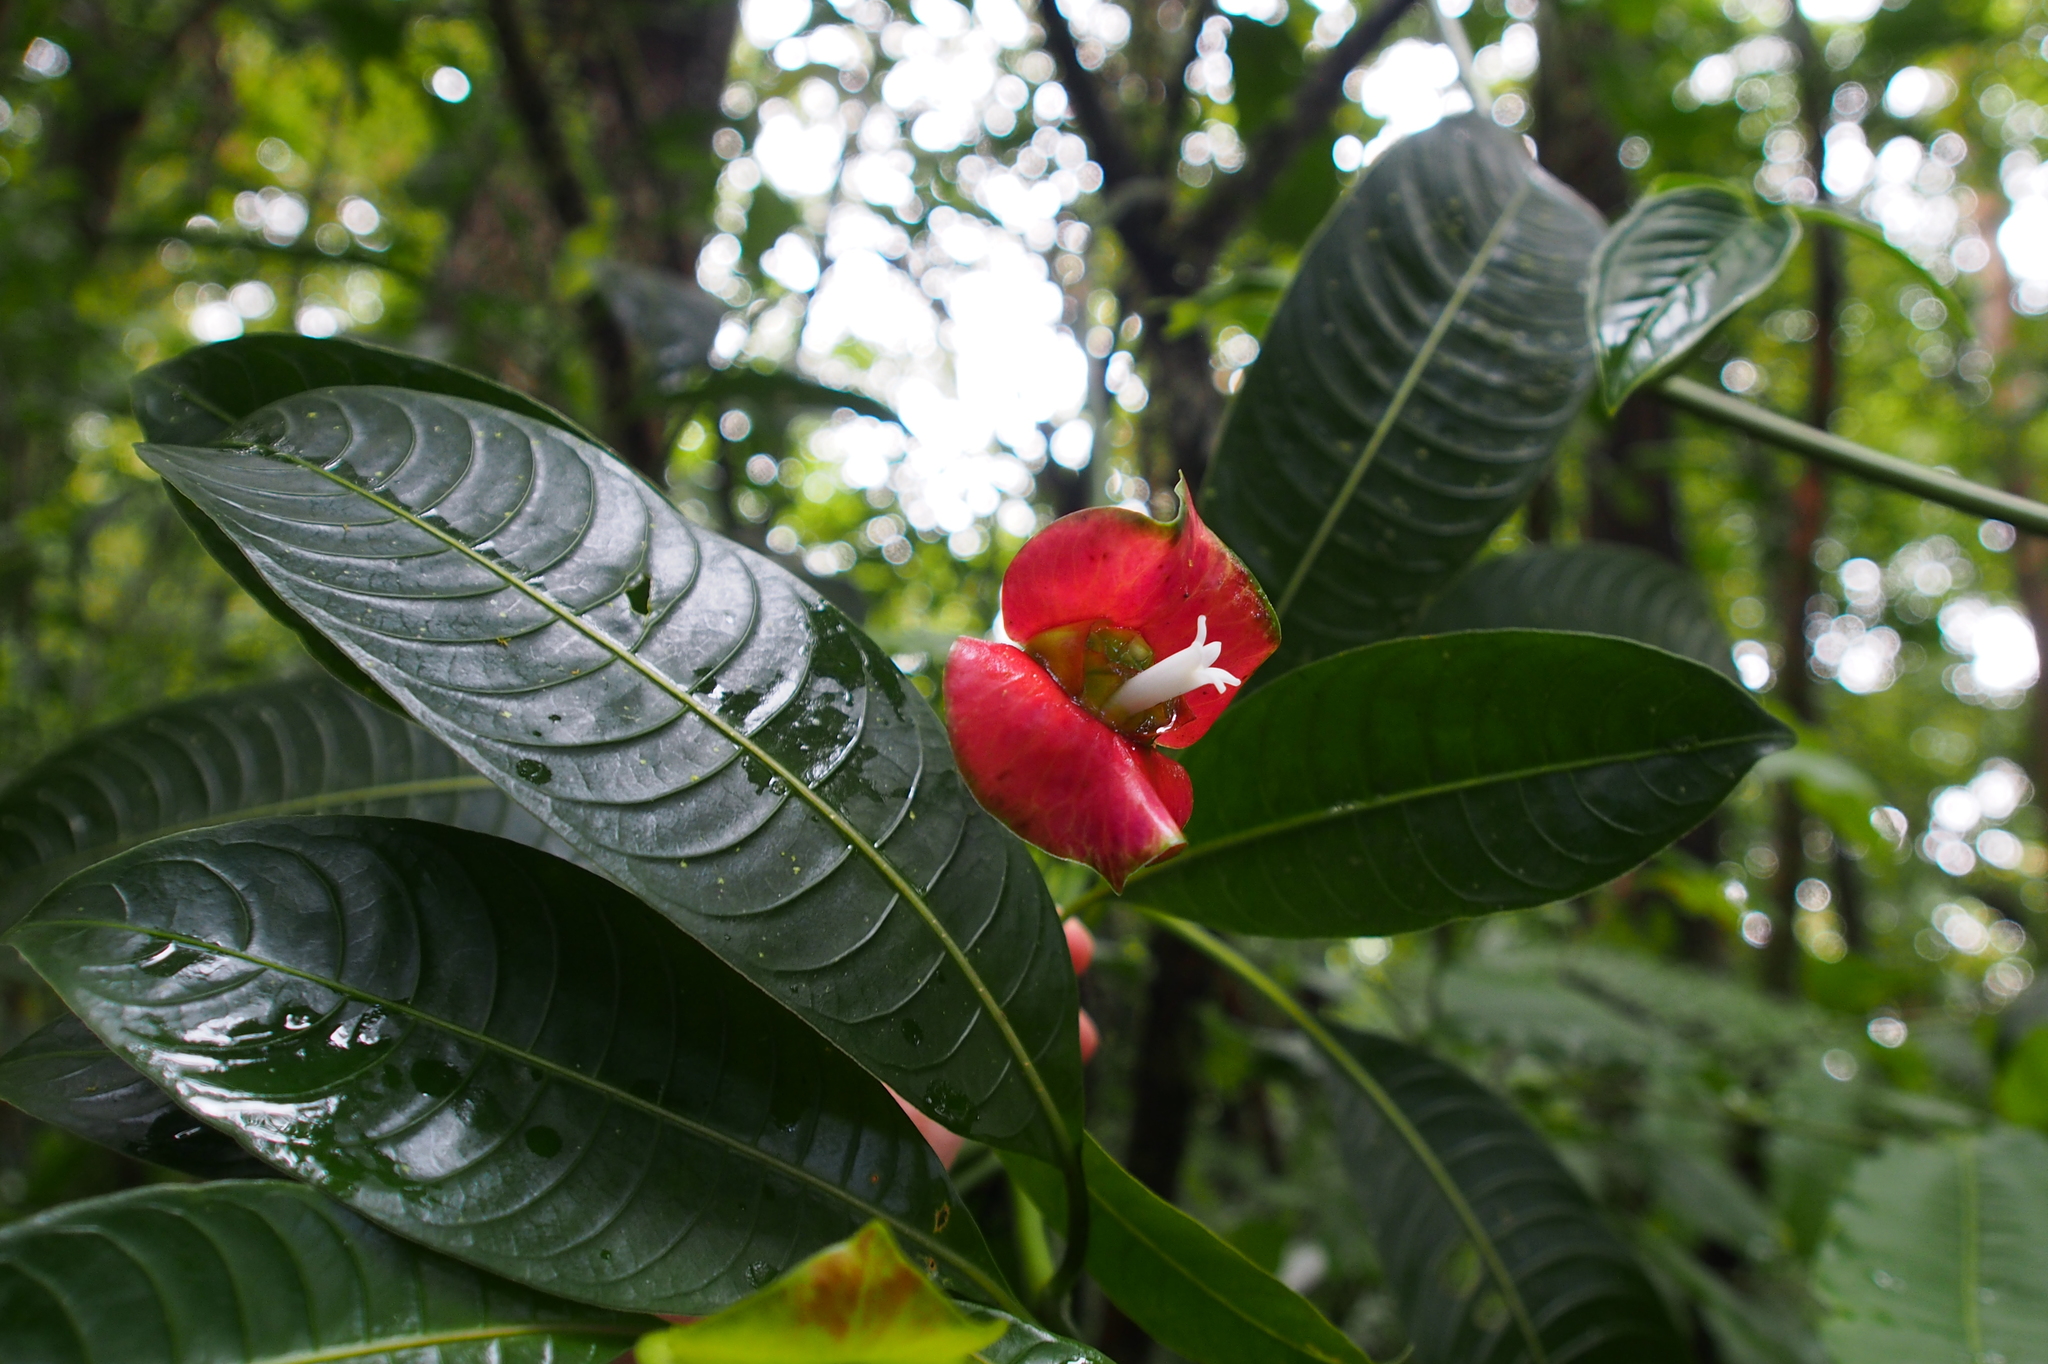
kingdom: Plantae
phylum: Tracheophyta
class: Magnoliopsida
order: Gentianales
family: Rubiaceae
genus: Palicourea
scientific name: Palicourea elata
